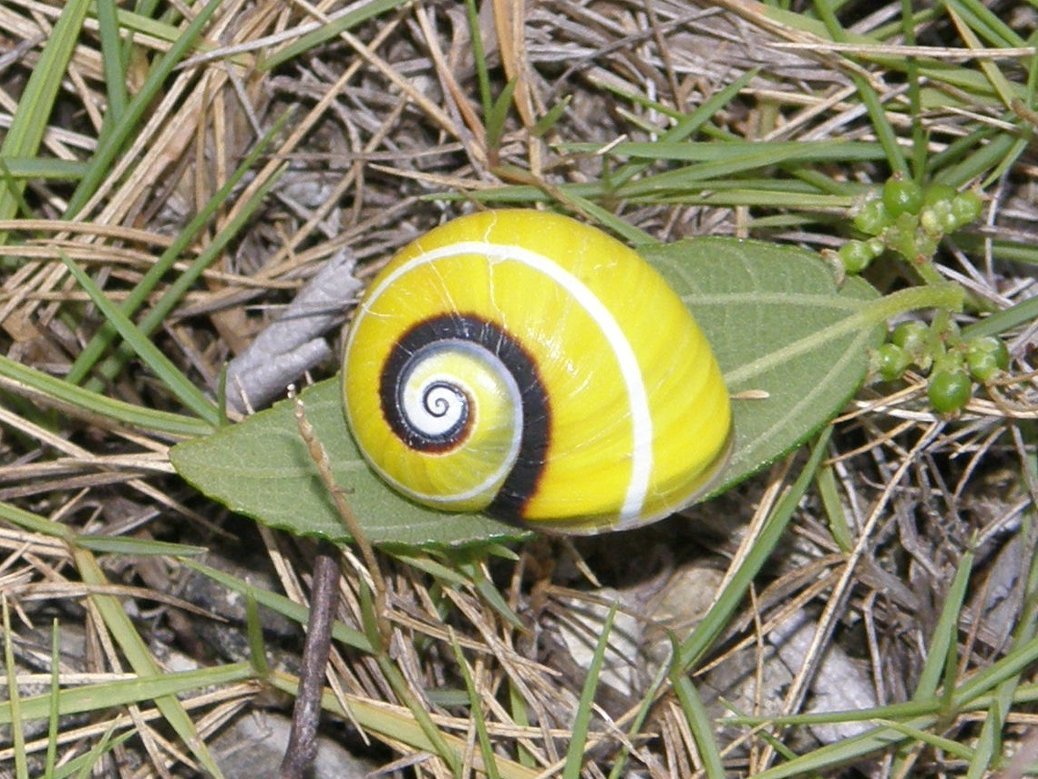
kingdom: Animalia
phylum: Mollusca
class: Gastropoda
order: Stylommatophora
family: Cepolidae
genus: Polymita
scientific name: Polymita picta
